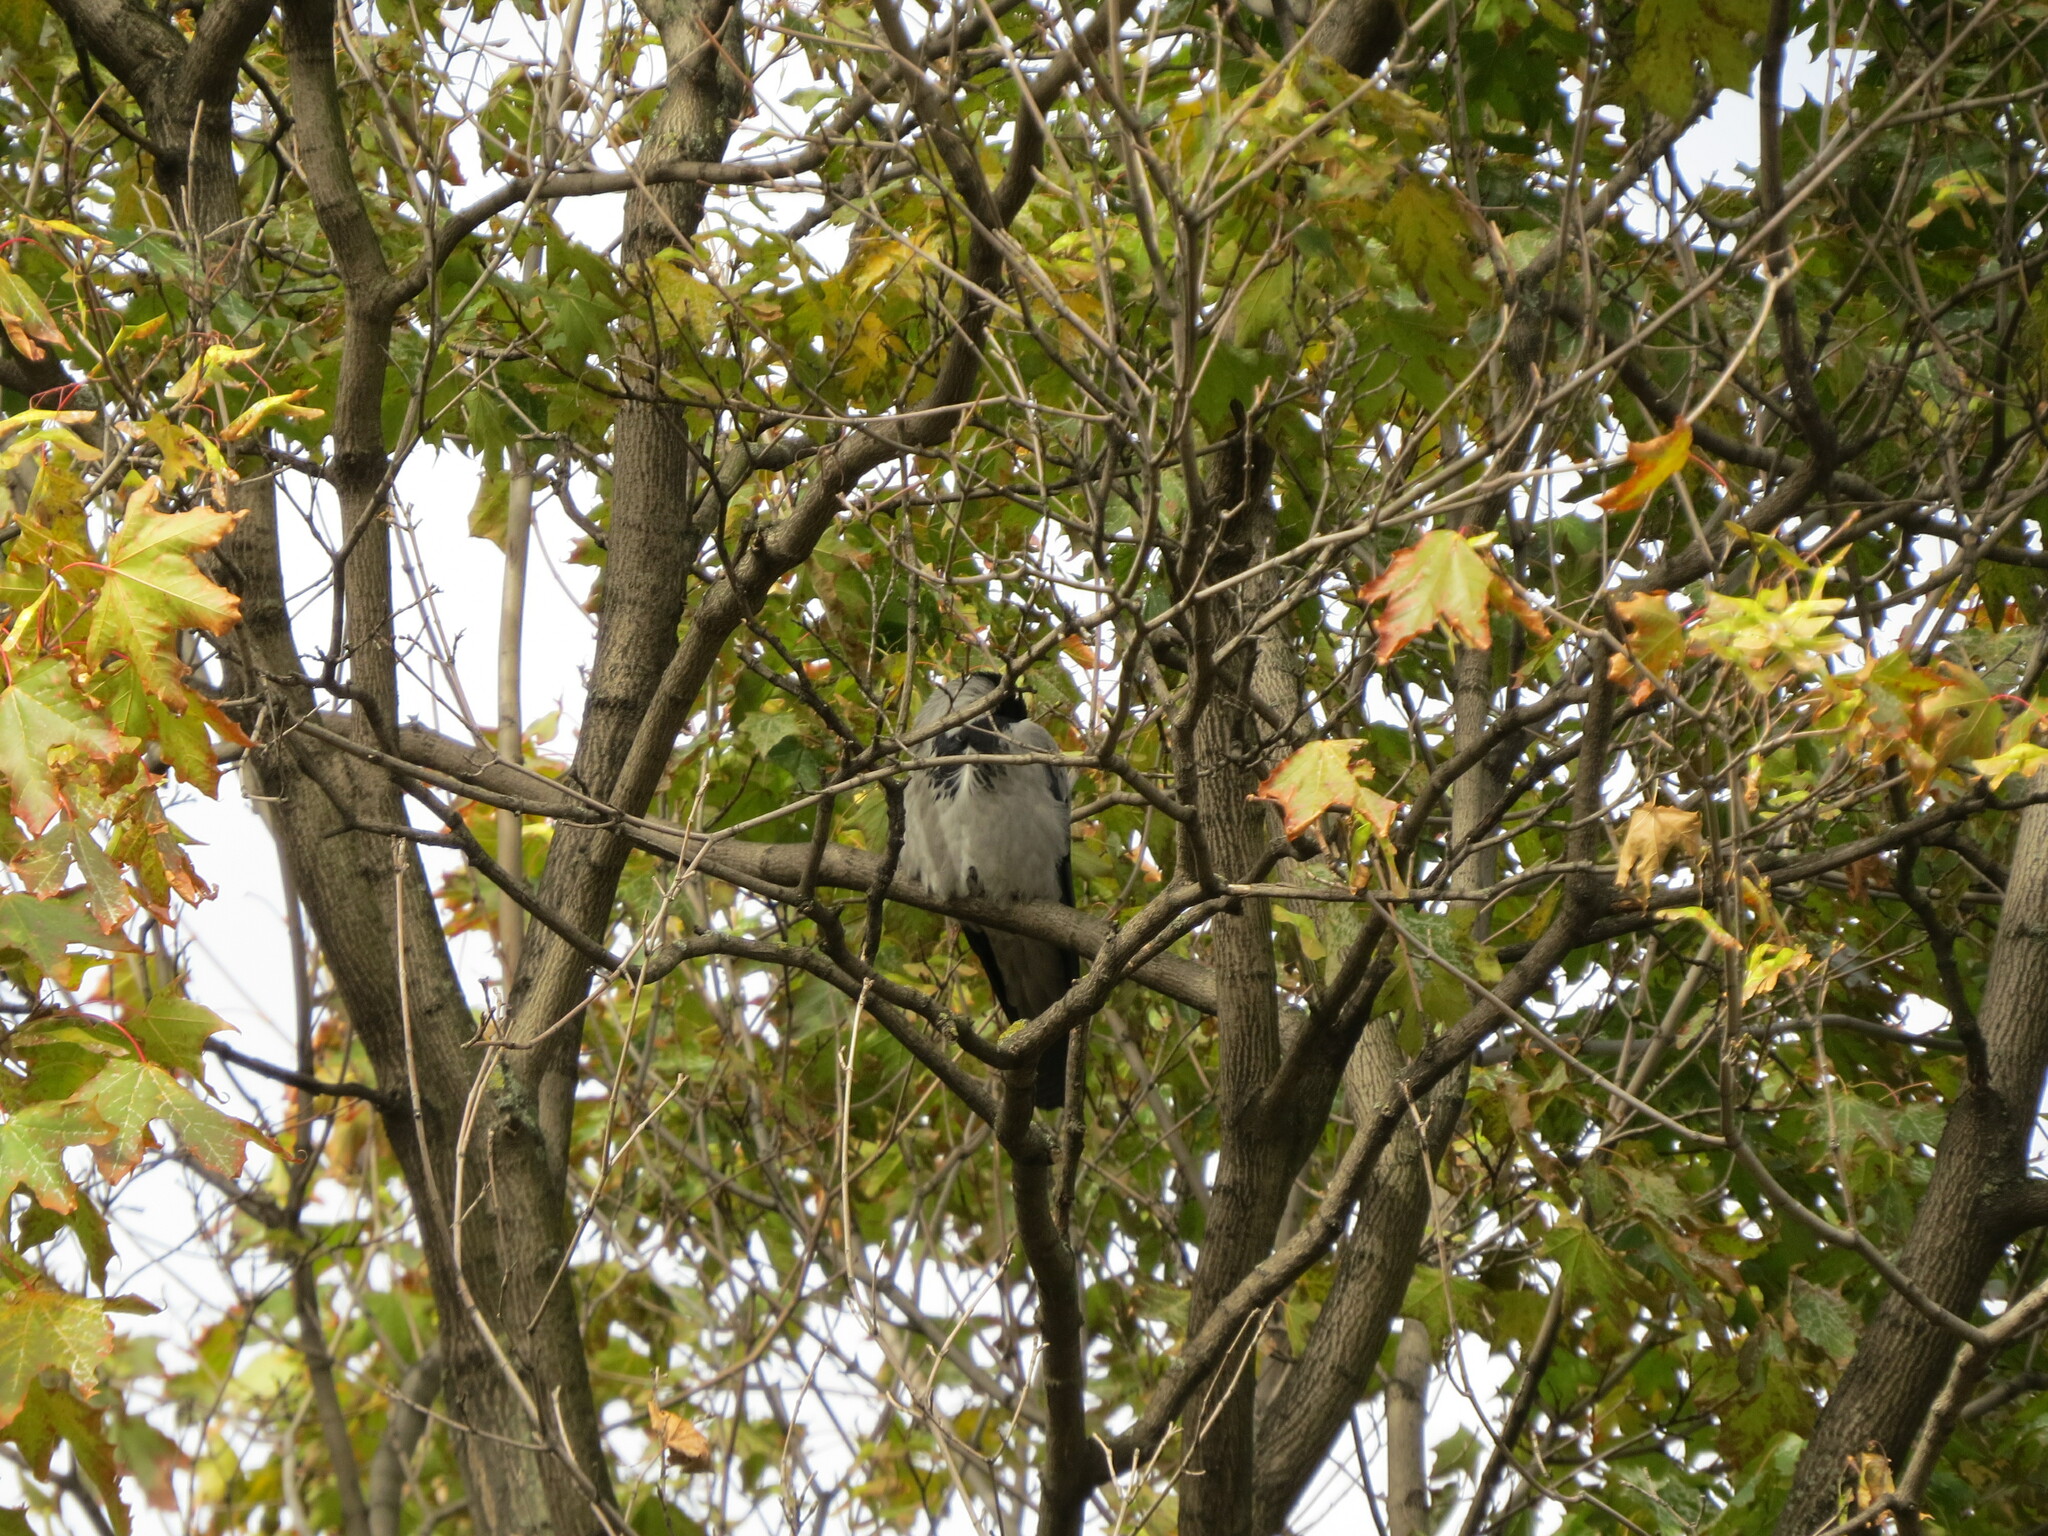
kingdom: Animalia
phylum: Chordata
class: Aves
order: Passeriformes
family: Corvidae
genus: Corvus
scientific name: Corvus cornix
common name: Hooded crow
